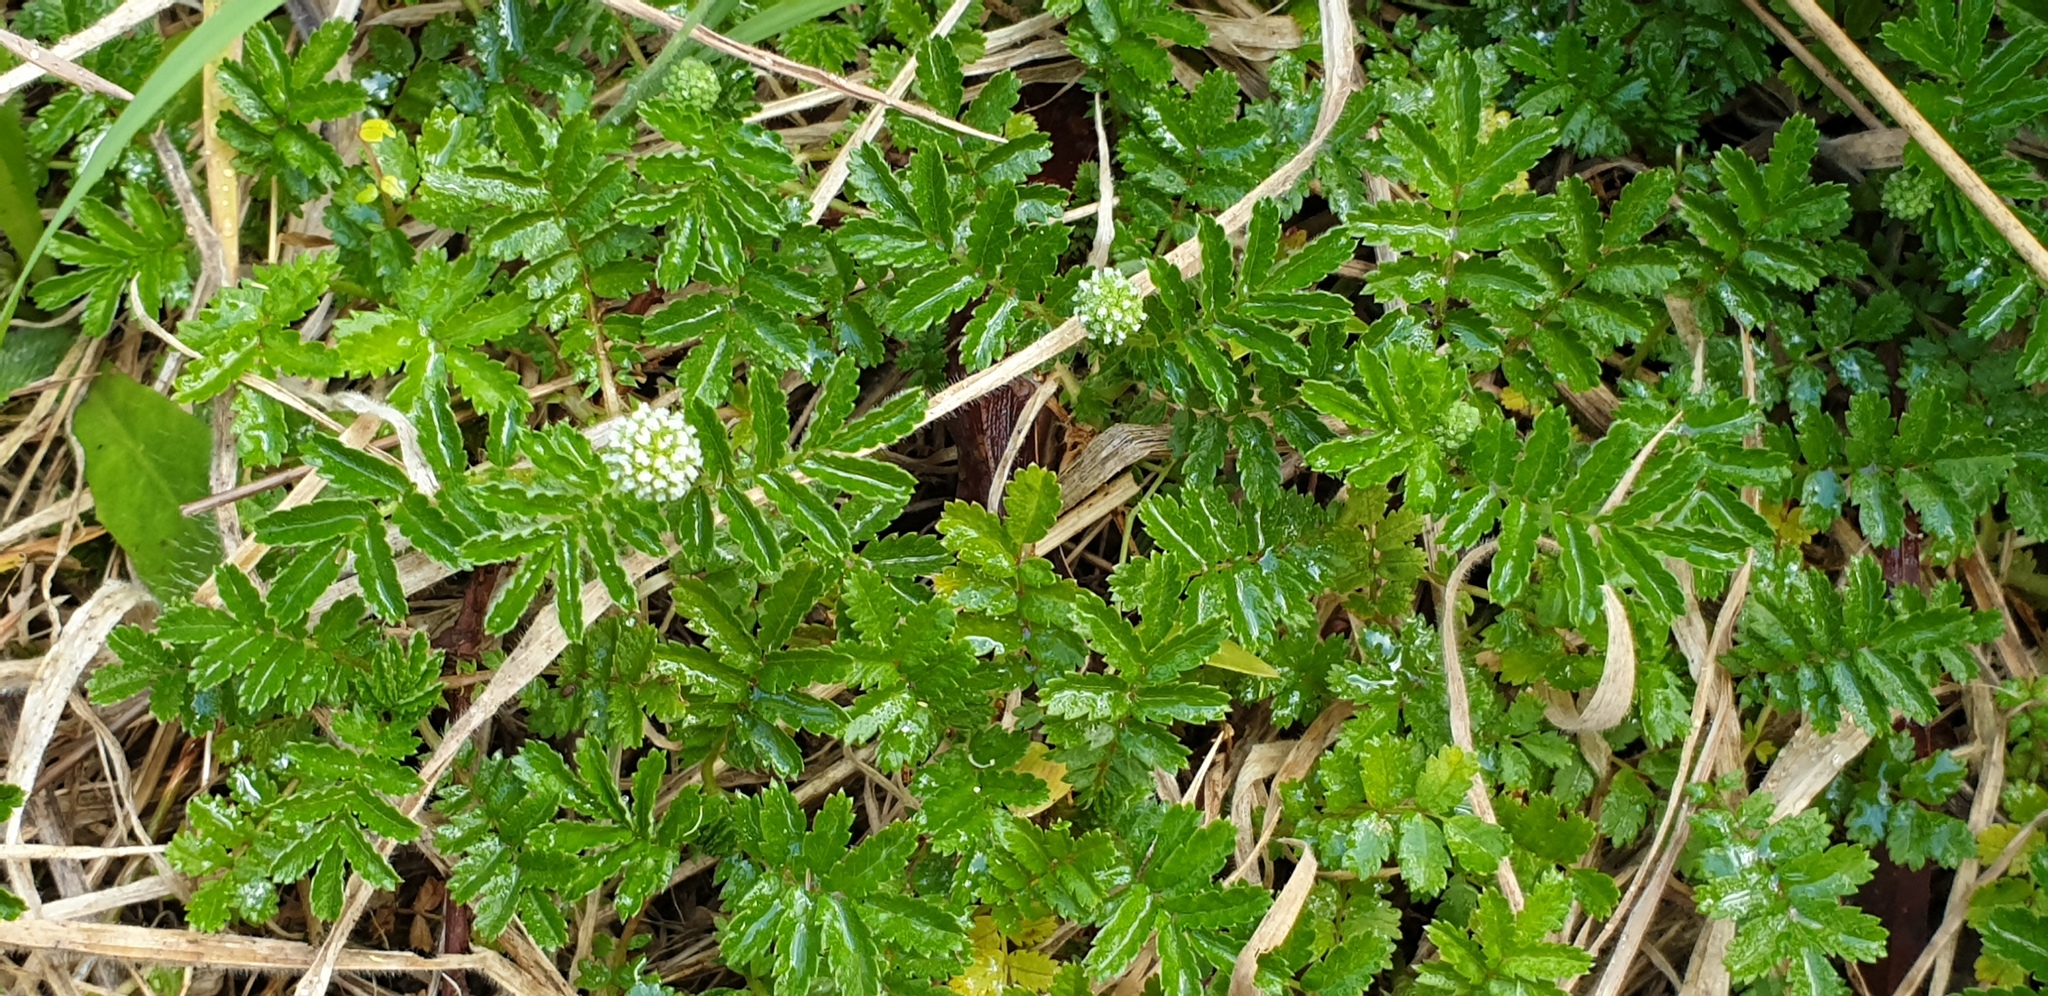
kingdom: Plantae
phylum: Tracheophyta
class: Magnoliopsida
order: Rosales
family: Rosaceae
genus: Acaena
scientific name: Acaena novae-zelandiae
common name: Pirri-pirri-bur
